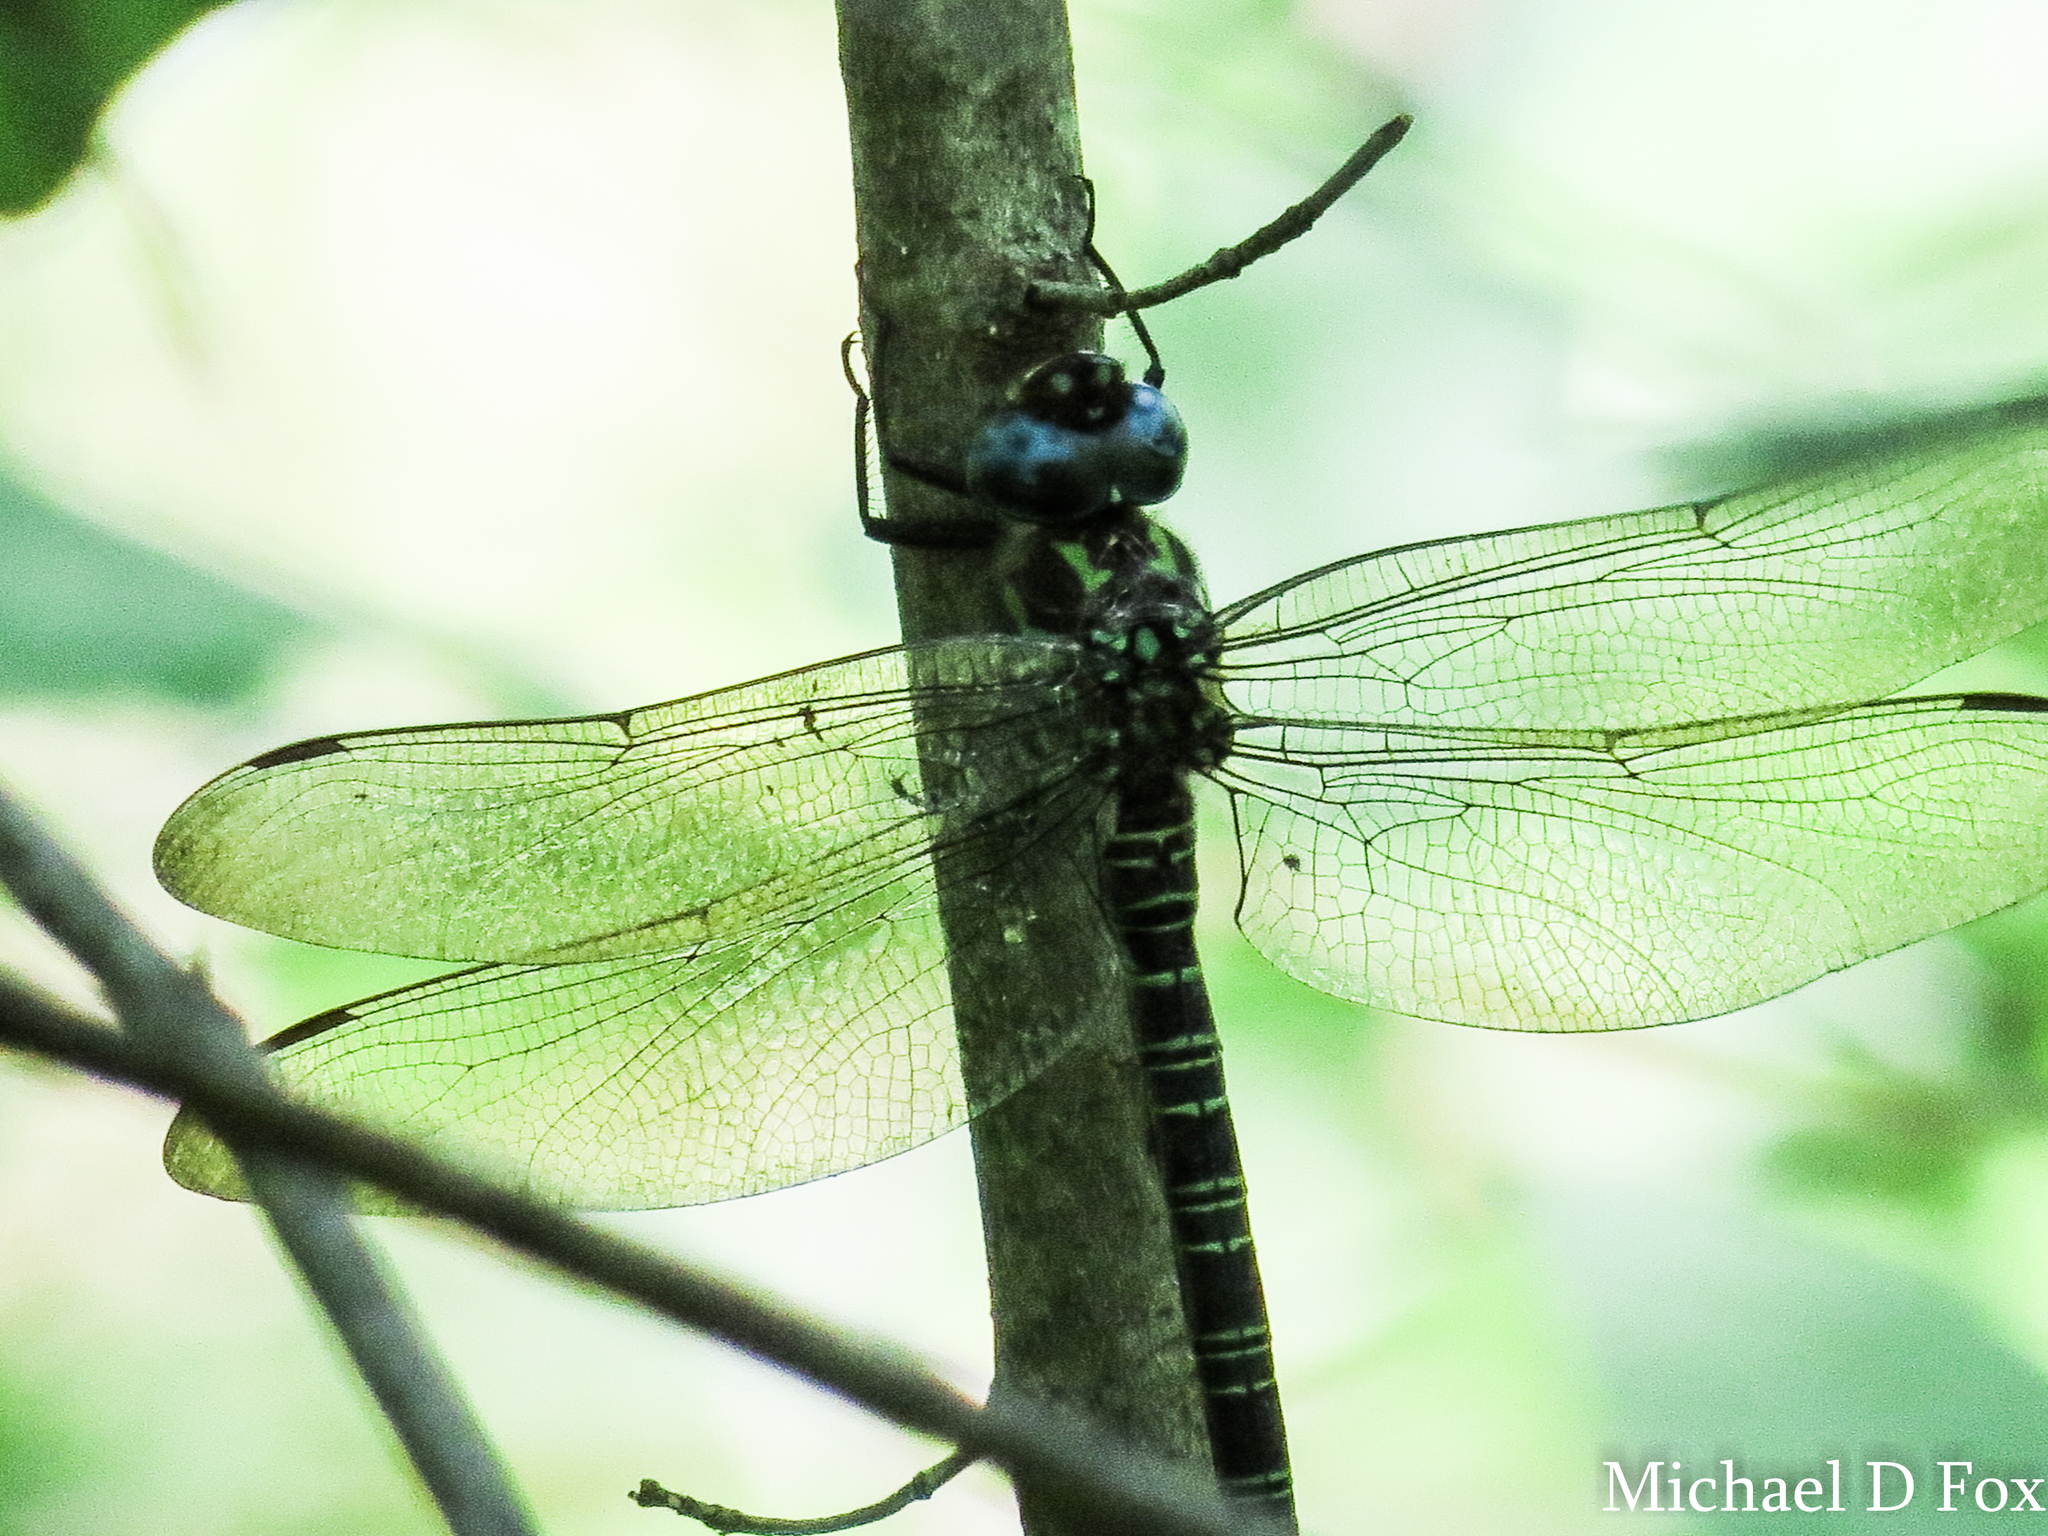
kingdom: Animalia
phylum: Arthropoda
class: Insecta
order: Odonata
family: Aeshnidae
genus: Epiaeschna
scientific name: Epiaeschna heros
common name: Swamp darner
